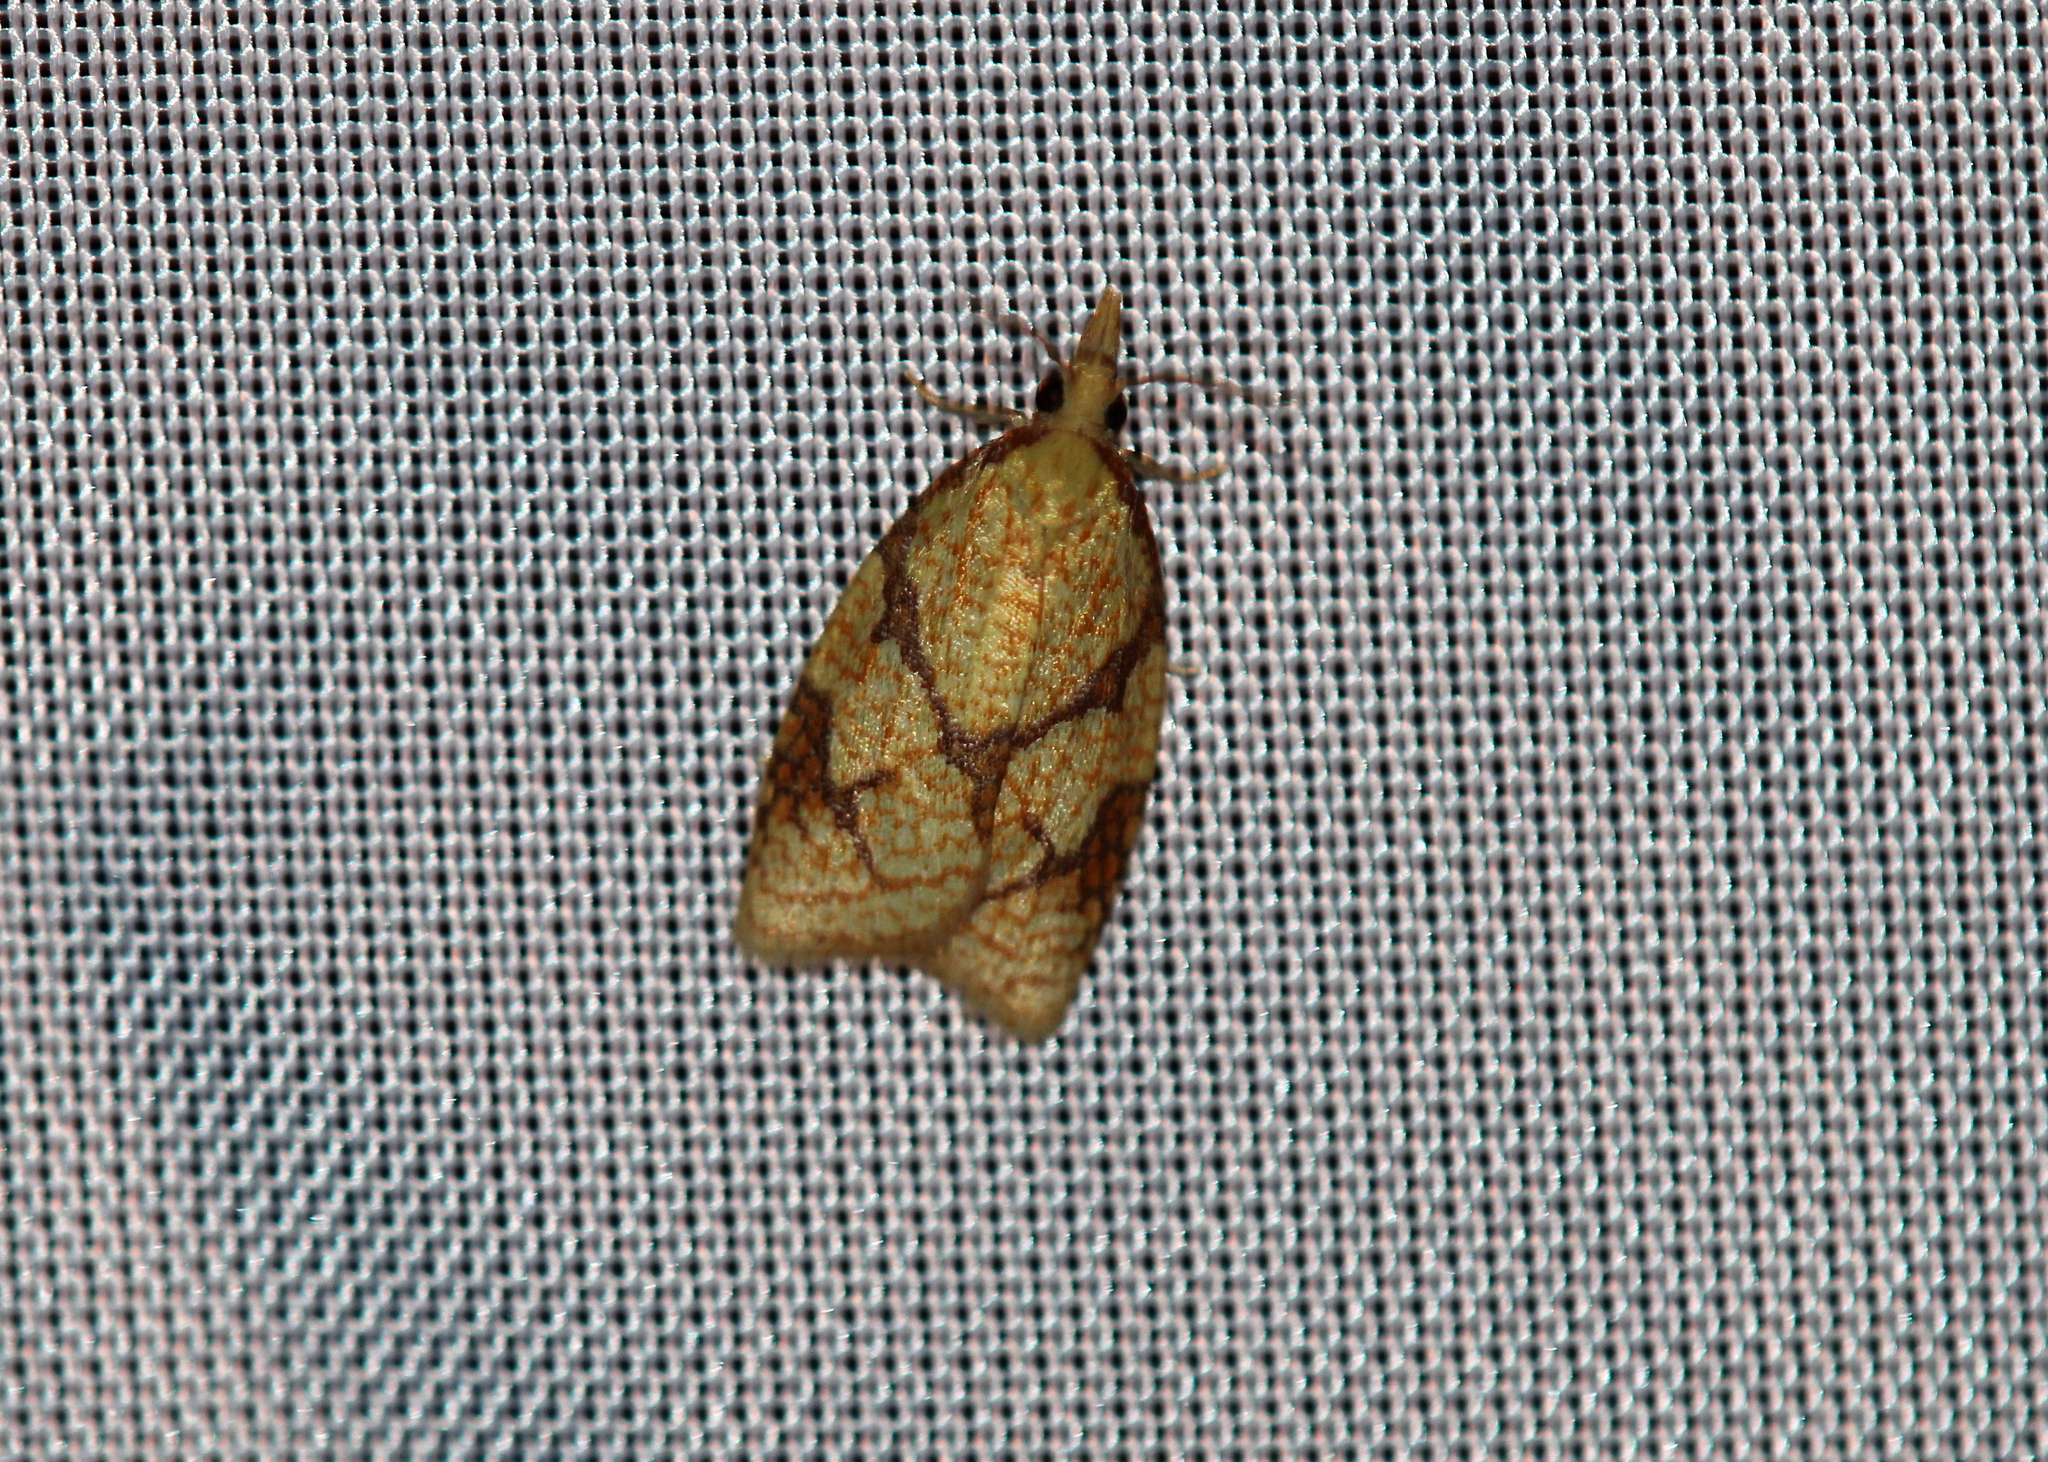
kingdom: Animalia
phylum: Arthropoda
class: Insecta
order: Lepidoptera
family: Tortricidae
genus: Cenopis
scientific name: Cenopis reticulatana
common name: Reticulated fruitworm moth
